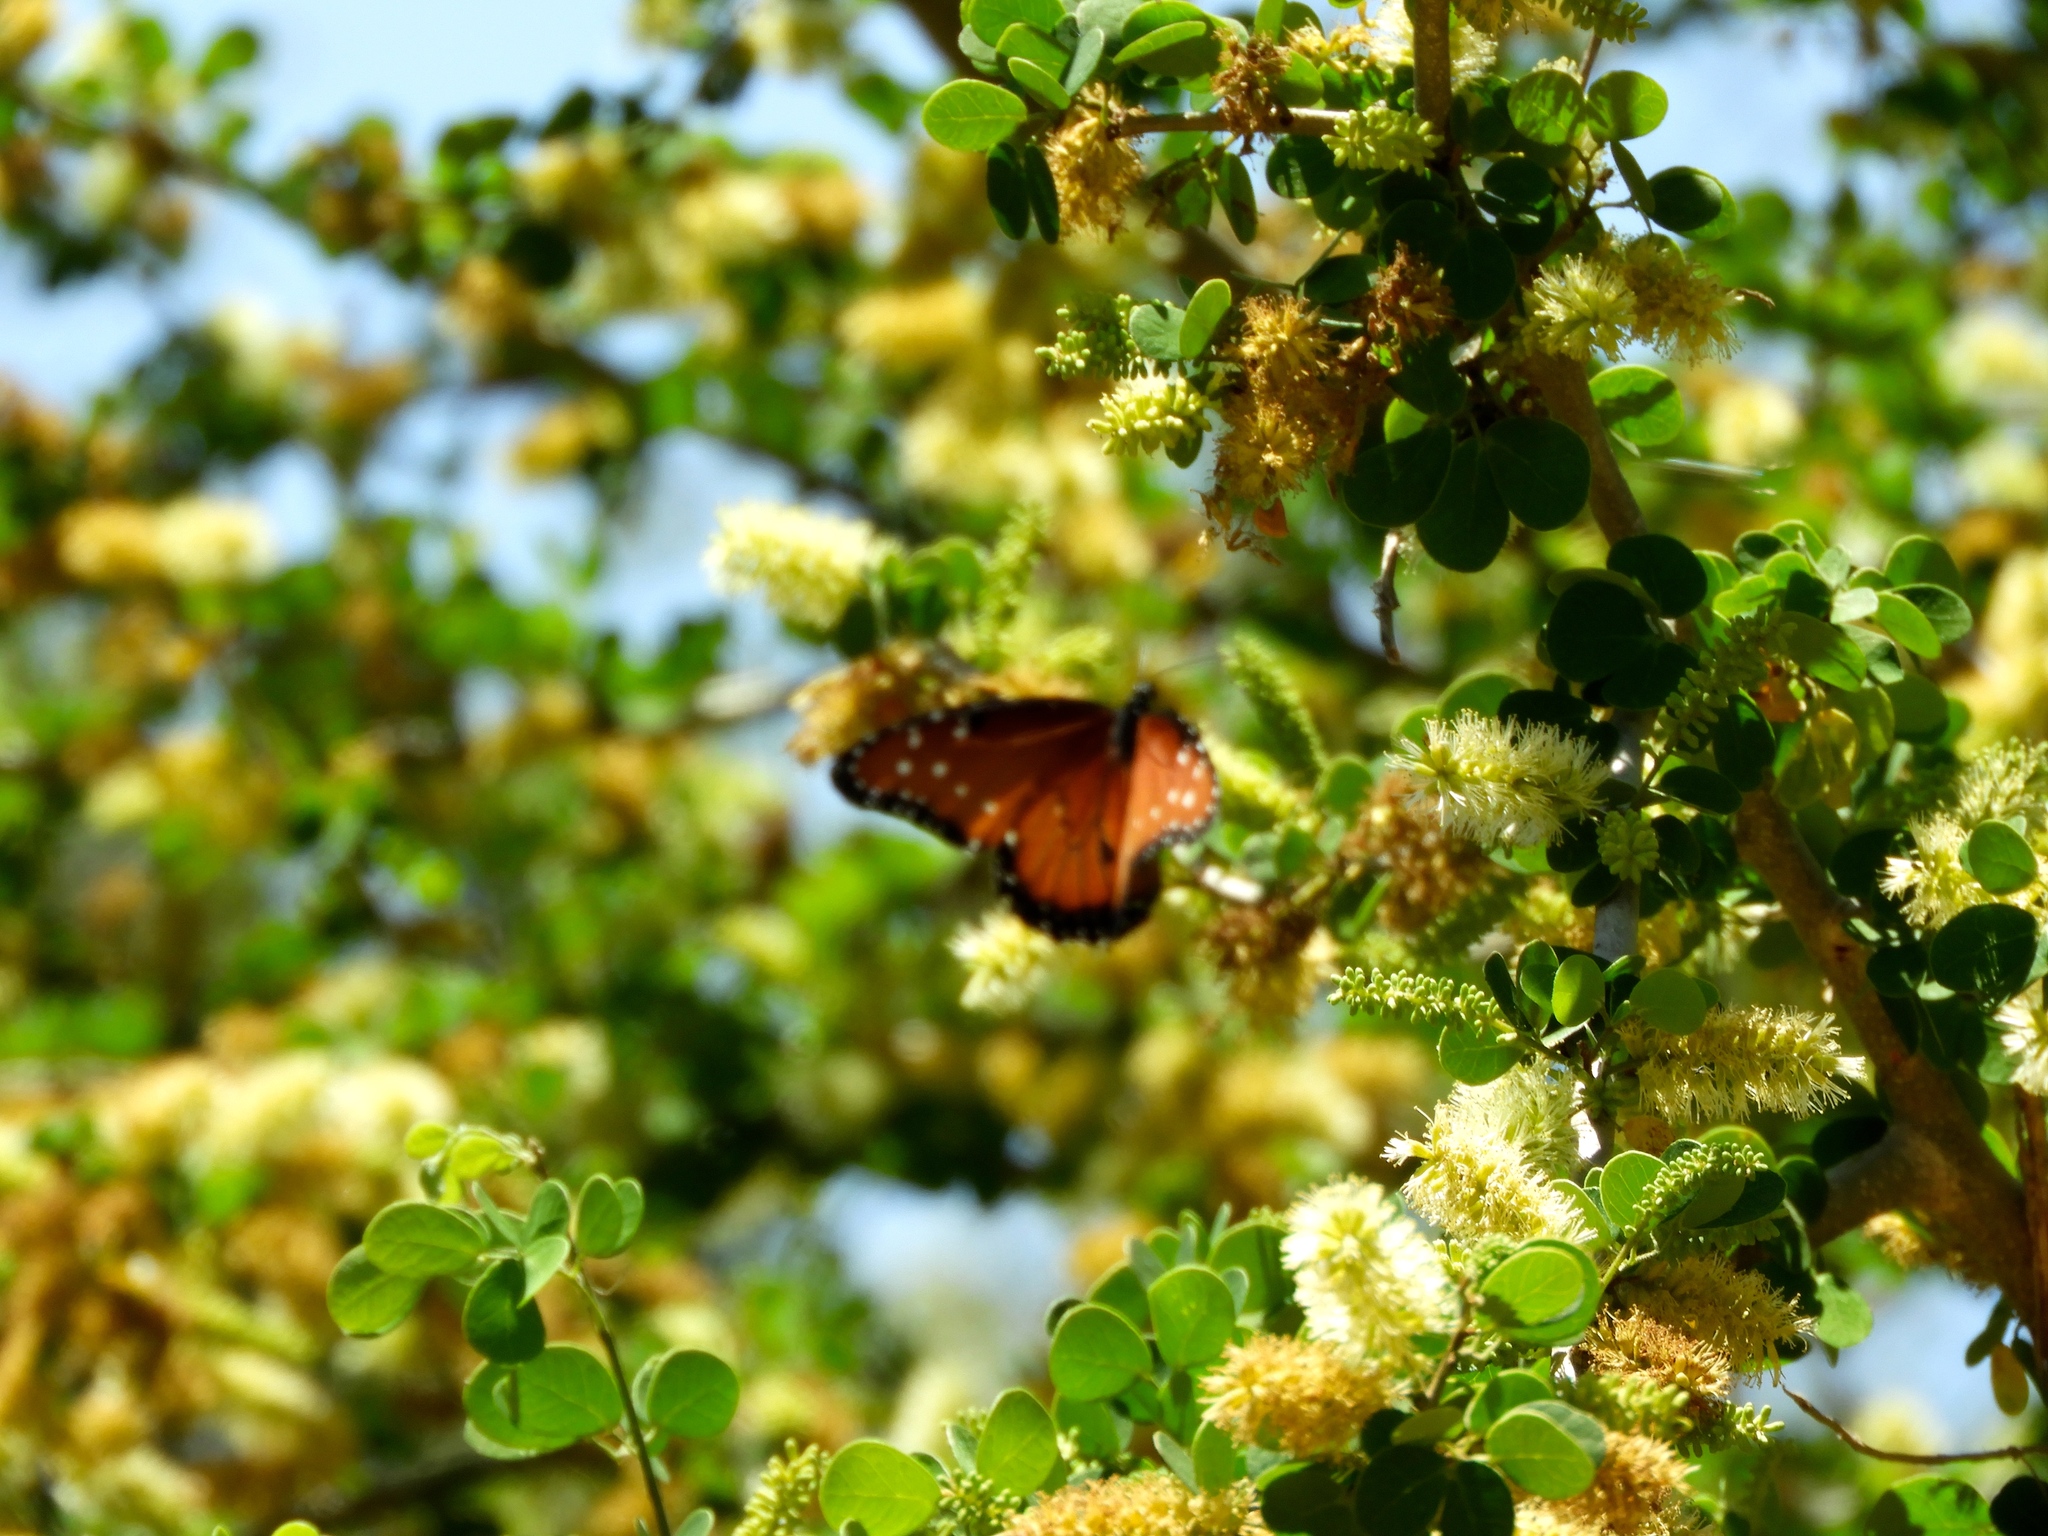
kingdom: Animalia
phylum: Arthropoda
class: Insecta
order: Lepidoptera
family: Nymphalidae
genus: Danaus
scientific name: Danaus gilippus
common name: Queen
